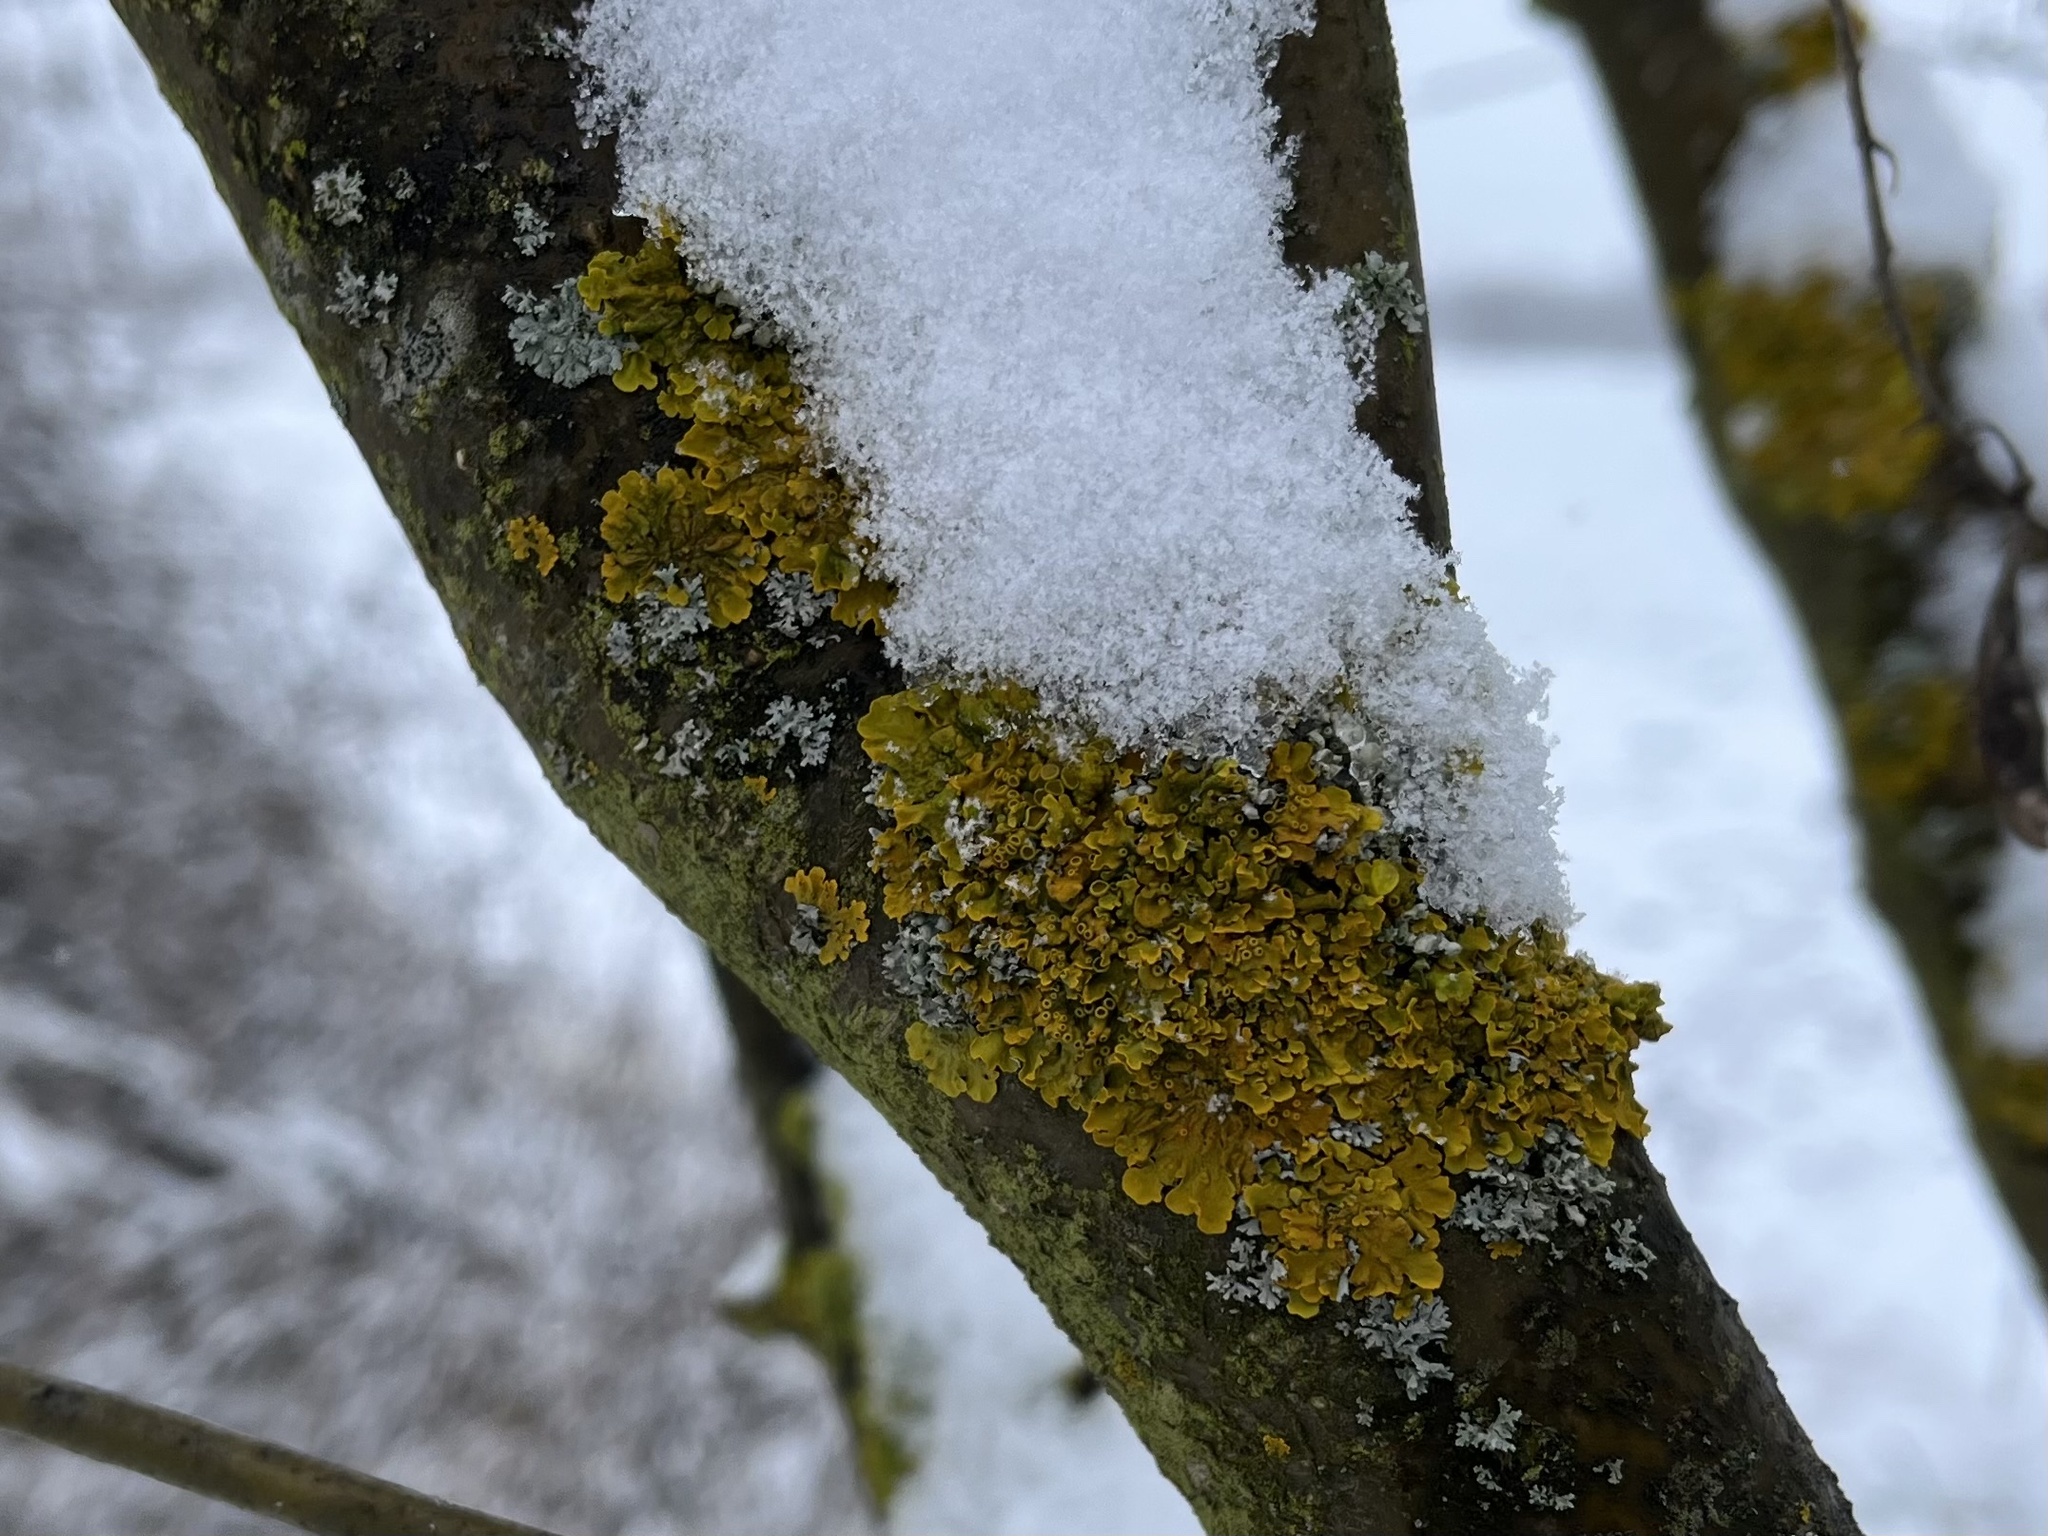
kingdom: Fungi
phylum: Ascomycota
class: Lecanoromycetes
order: Teloschistales
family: Teloschistaceae
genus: Xanthoria
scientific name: Xanthoria parietina
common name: Common orange lichen
